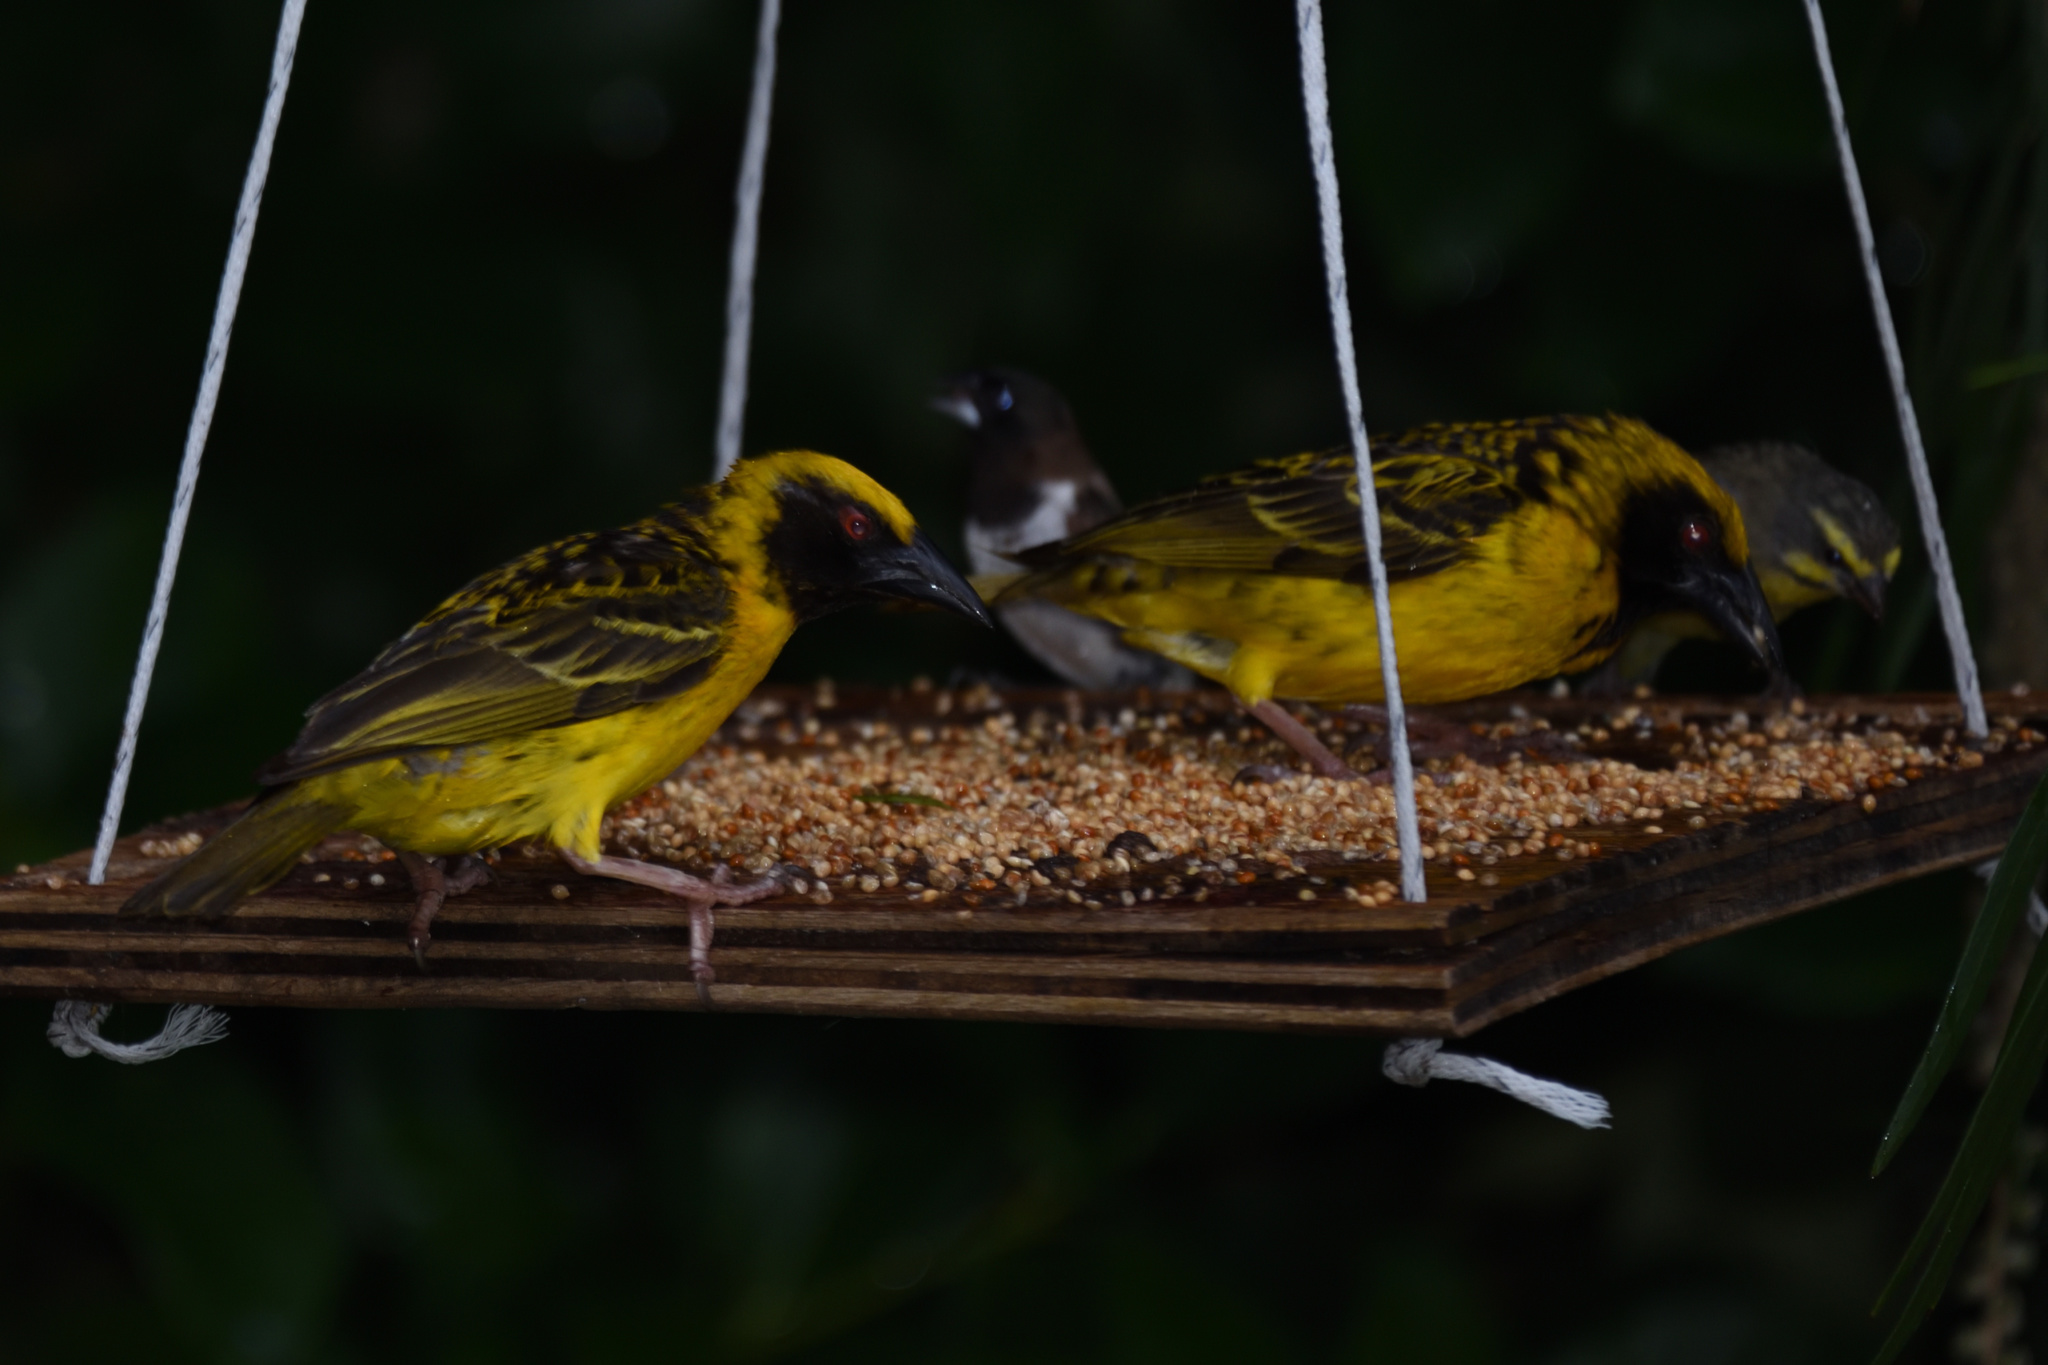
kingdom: Animalia
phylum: Chordata
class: Aves
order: Passeriformes
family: Ploceidae
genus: Ploceus
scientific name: Ploceus cucullatus
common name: Village weaver
